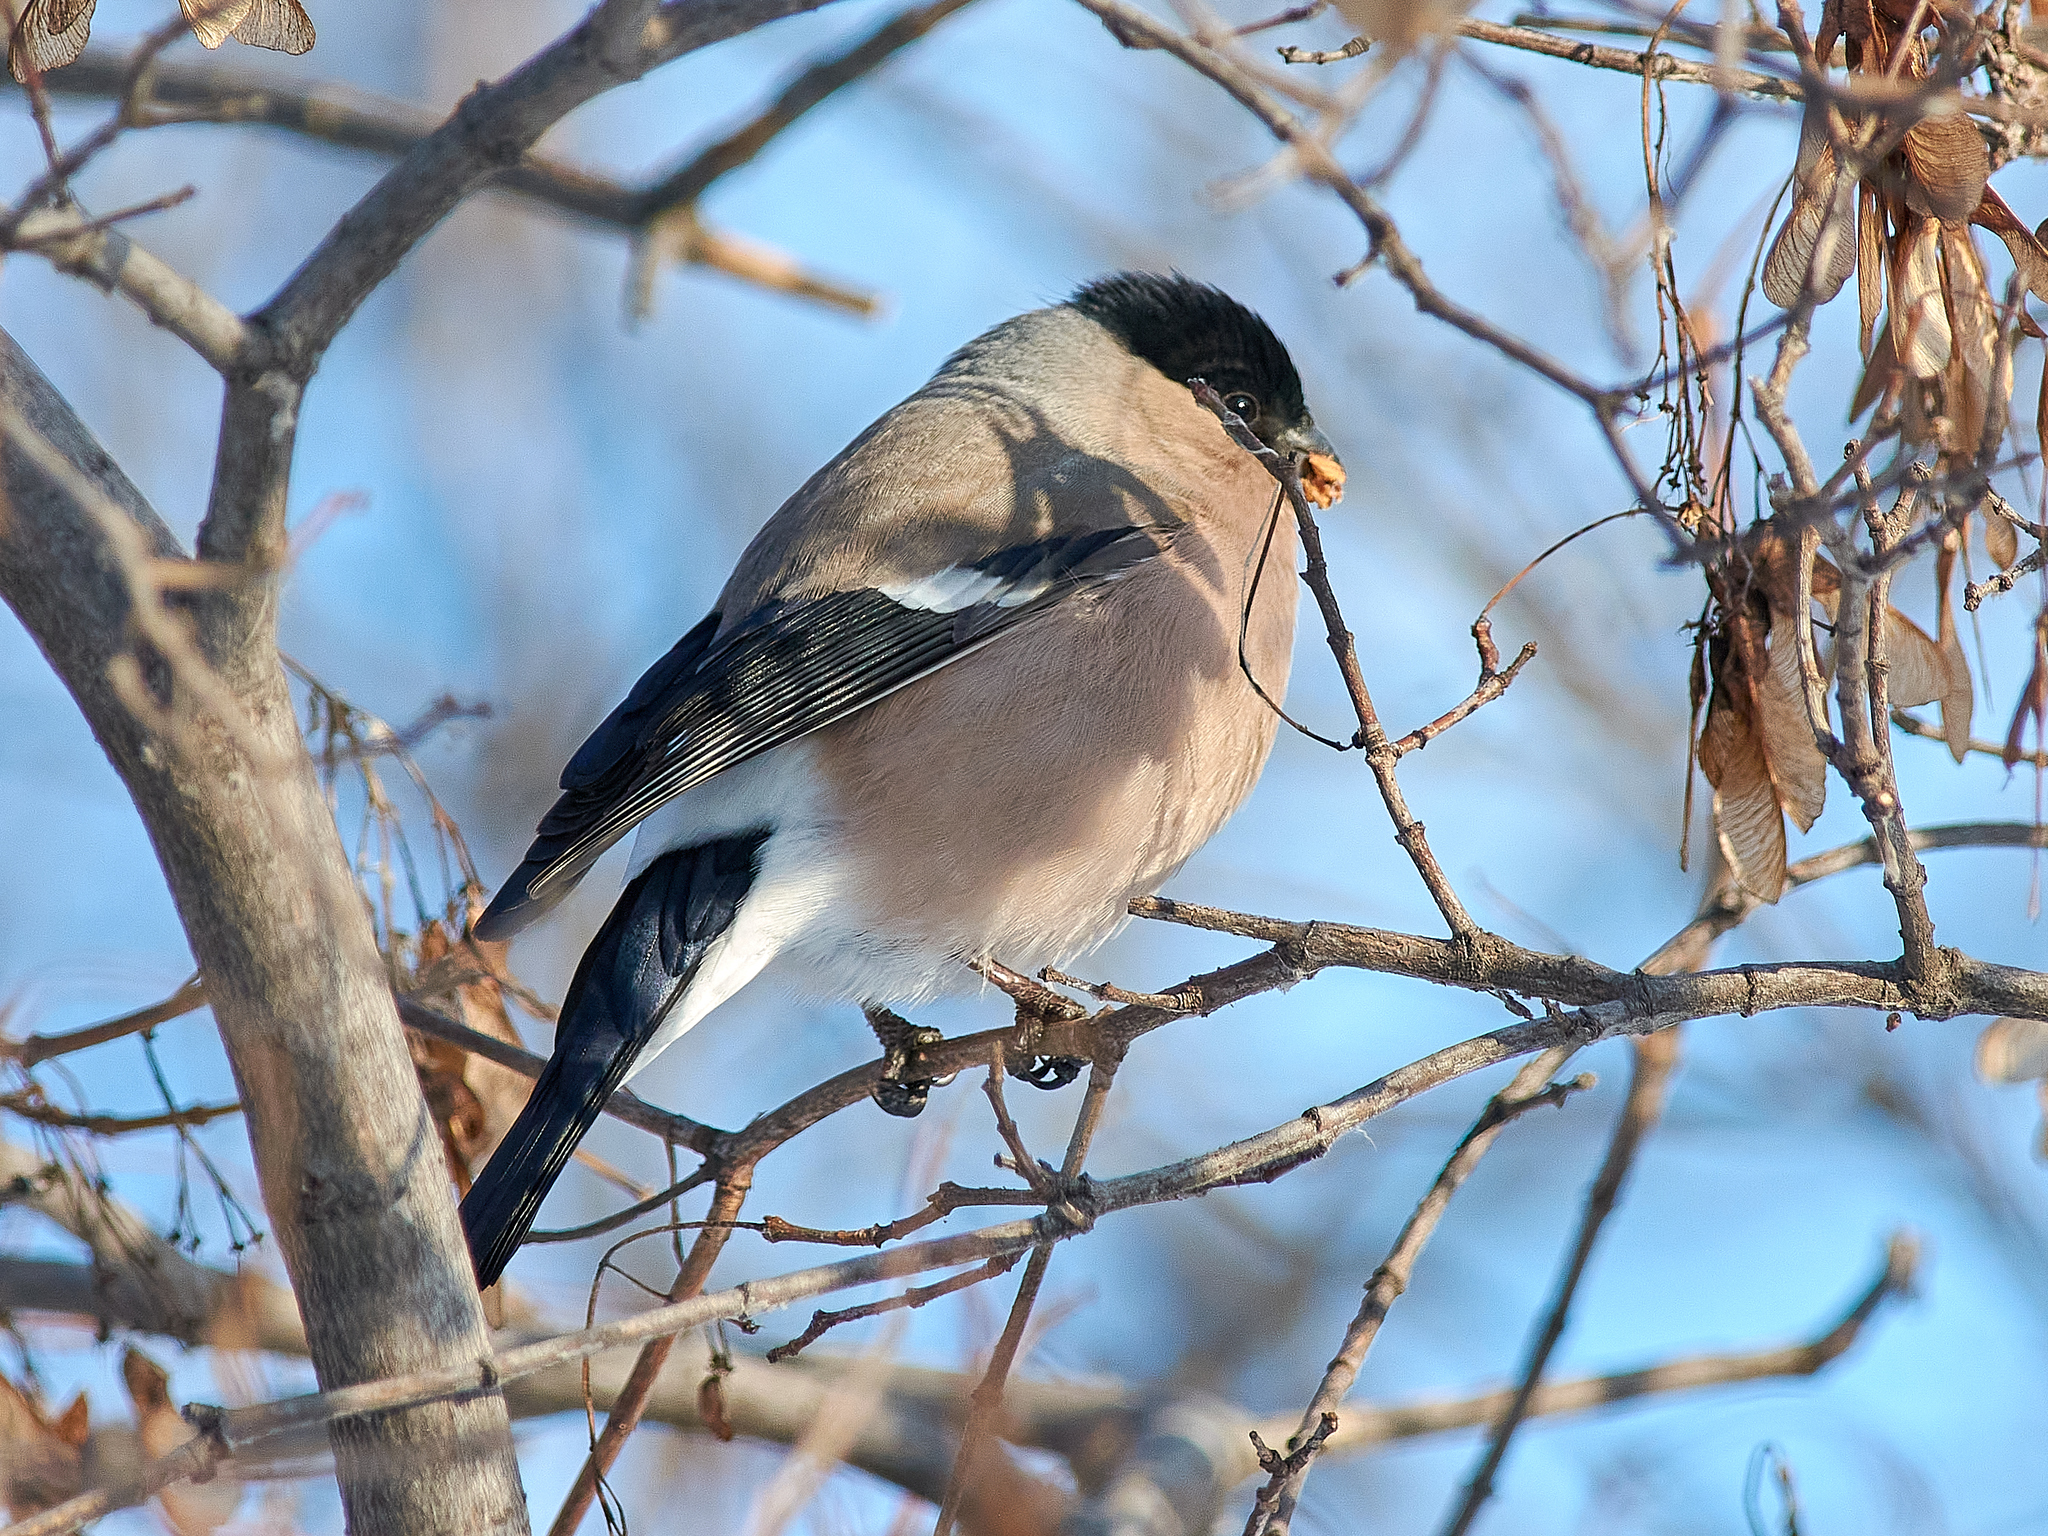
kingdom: Animalia
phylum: Chordata
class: Aves
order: Passeriformes
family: Fringillidae
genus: Pyrrhula
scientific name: Pyrrhula pyrrhula
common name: Eurasian bullfinch
